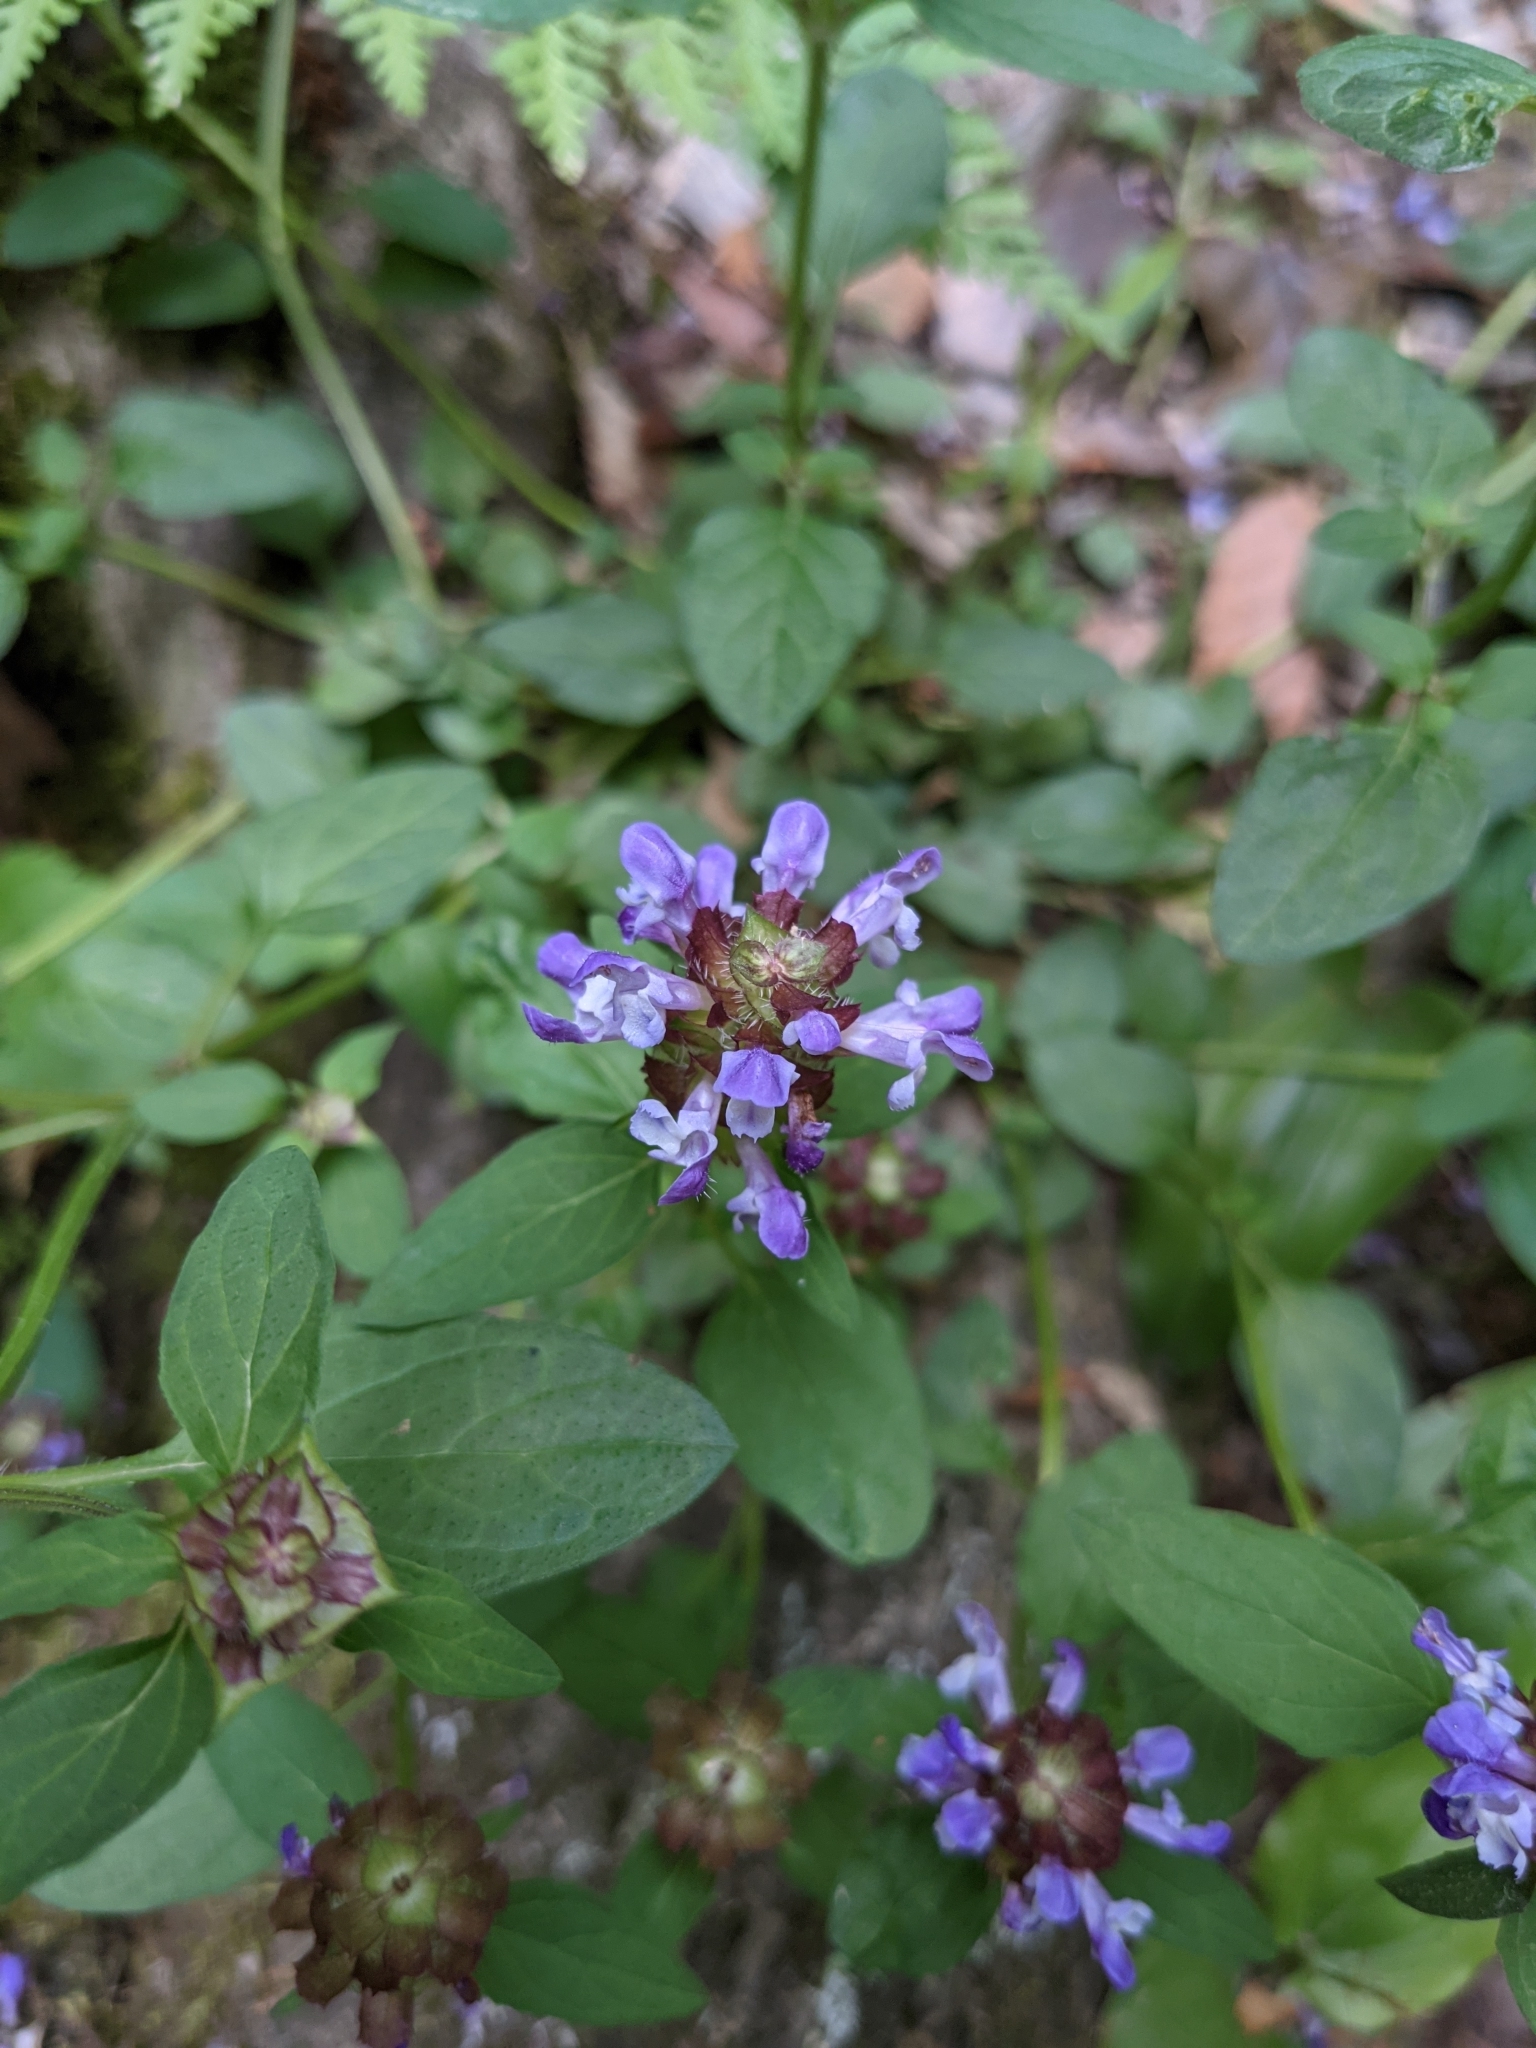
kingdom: Plantae
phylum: Tracheophyta
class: Magnoliopsida
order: Lamiales
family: Lamiaceae
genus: Prunella
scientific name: Prunella vulgaris
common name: Heal-all
